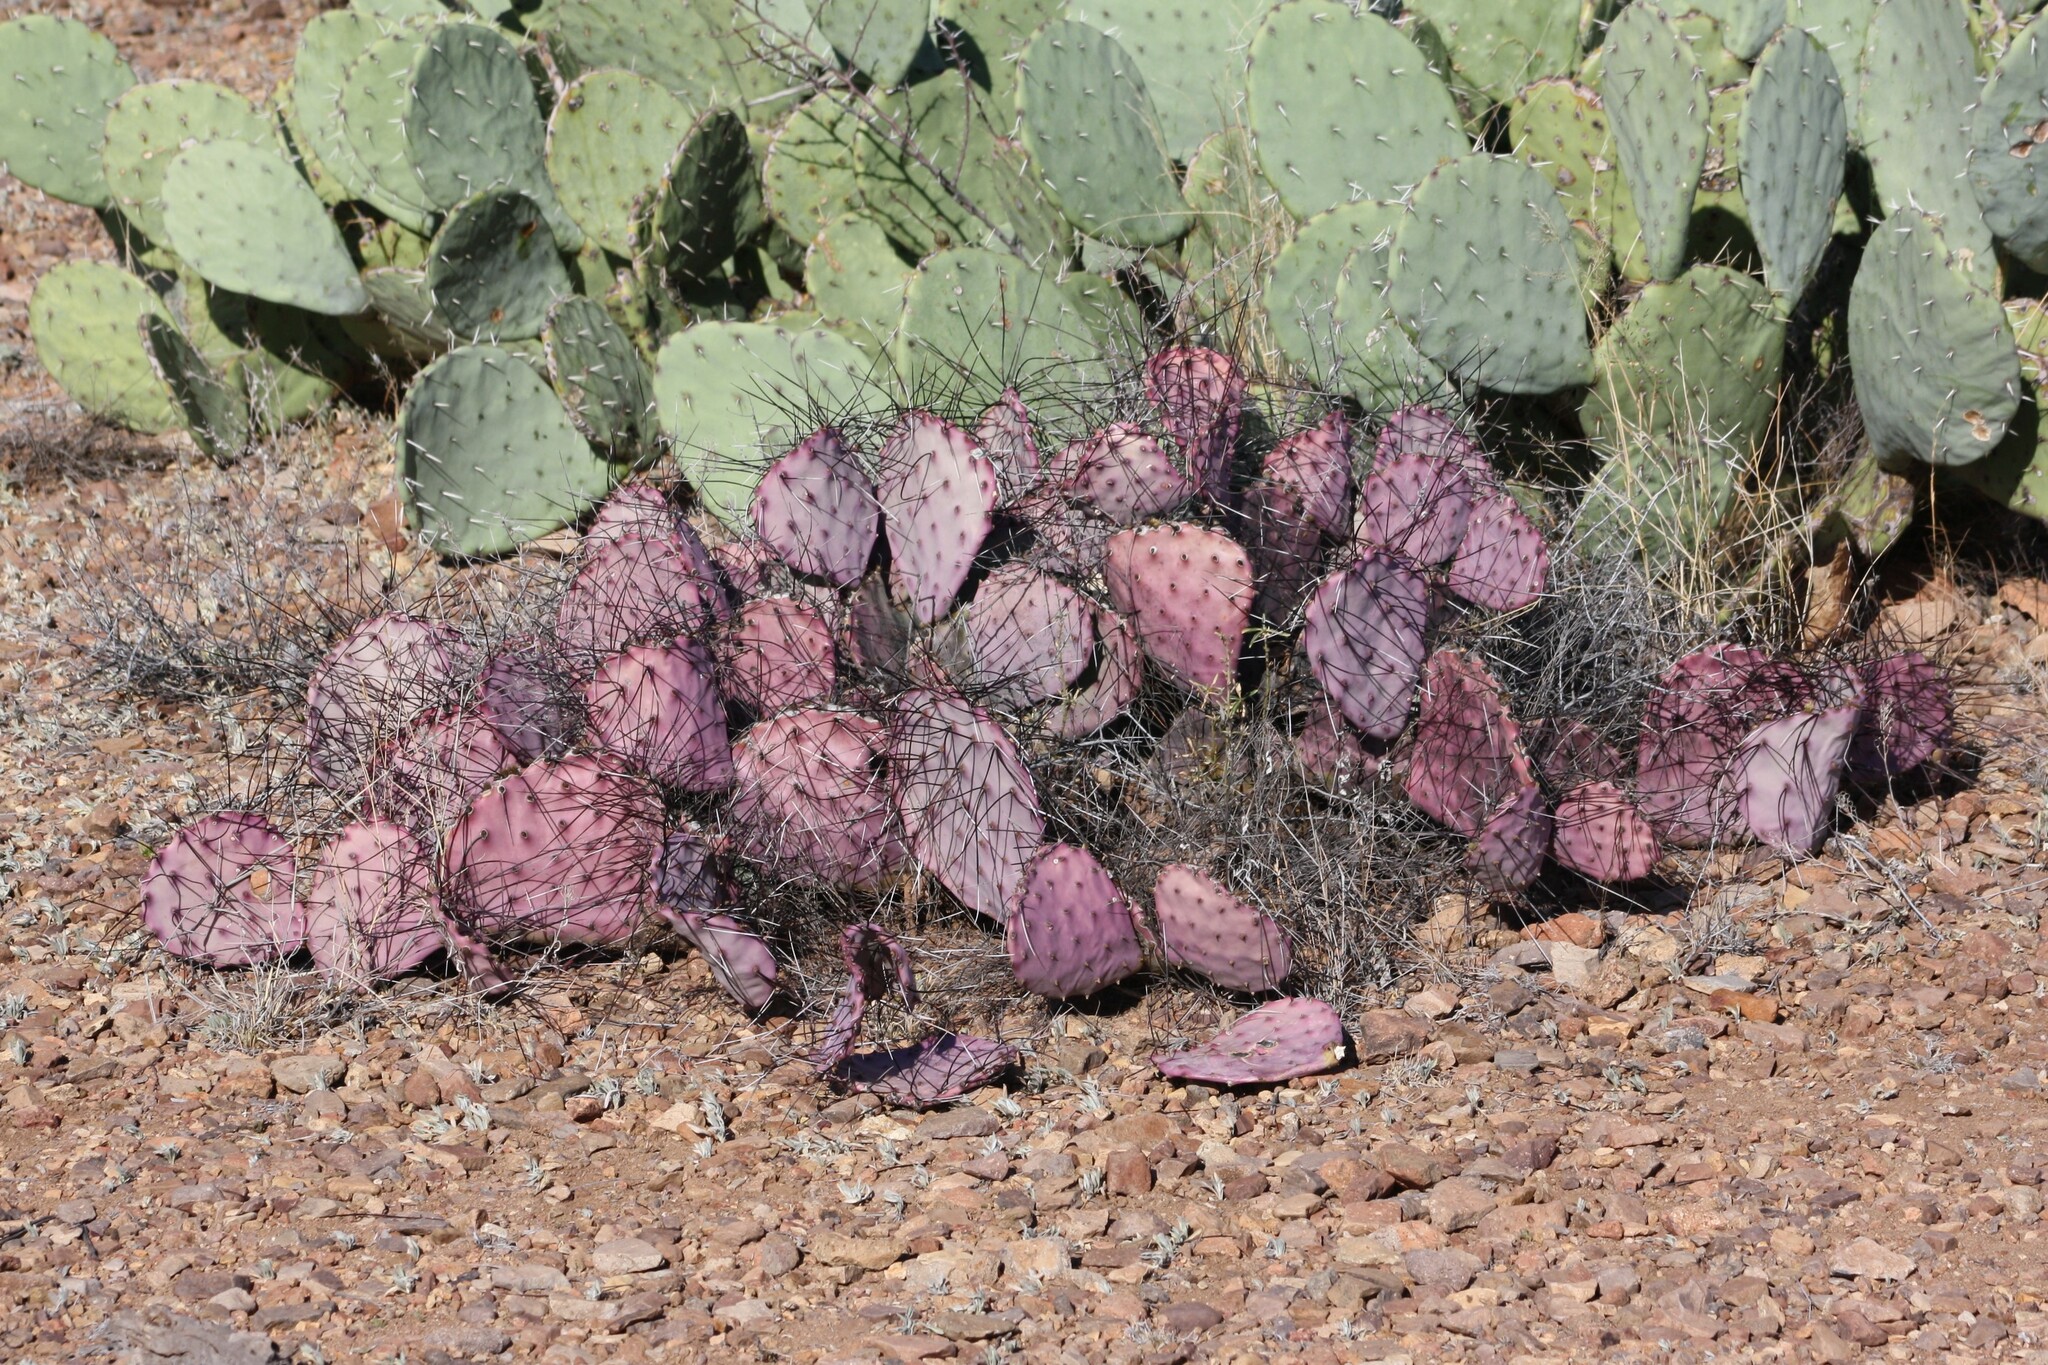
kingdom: Plantae
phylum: Tracheophyta
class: Magnoliopsida
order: Caryophyllales
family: Cactaceae
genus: Opuntia
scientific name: Opuntia phaeacantha
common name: New mexico prickly-pear
